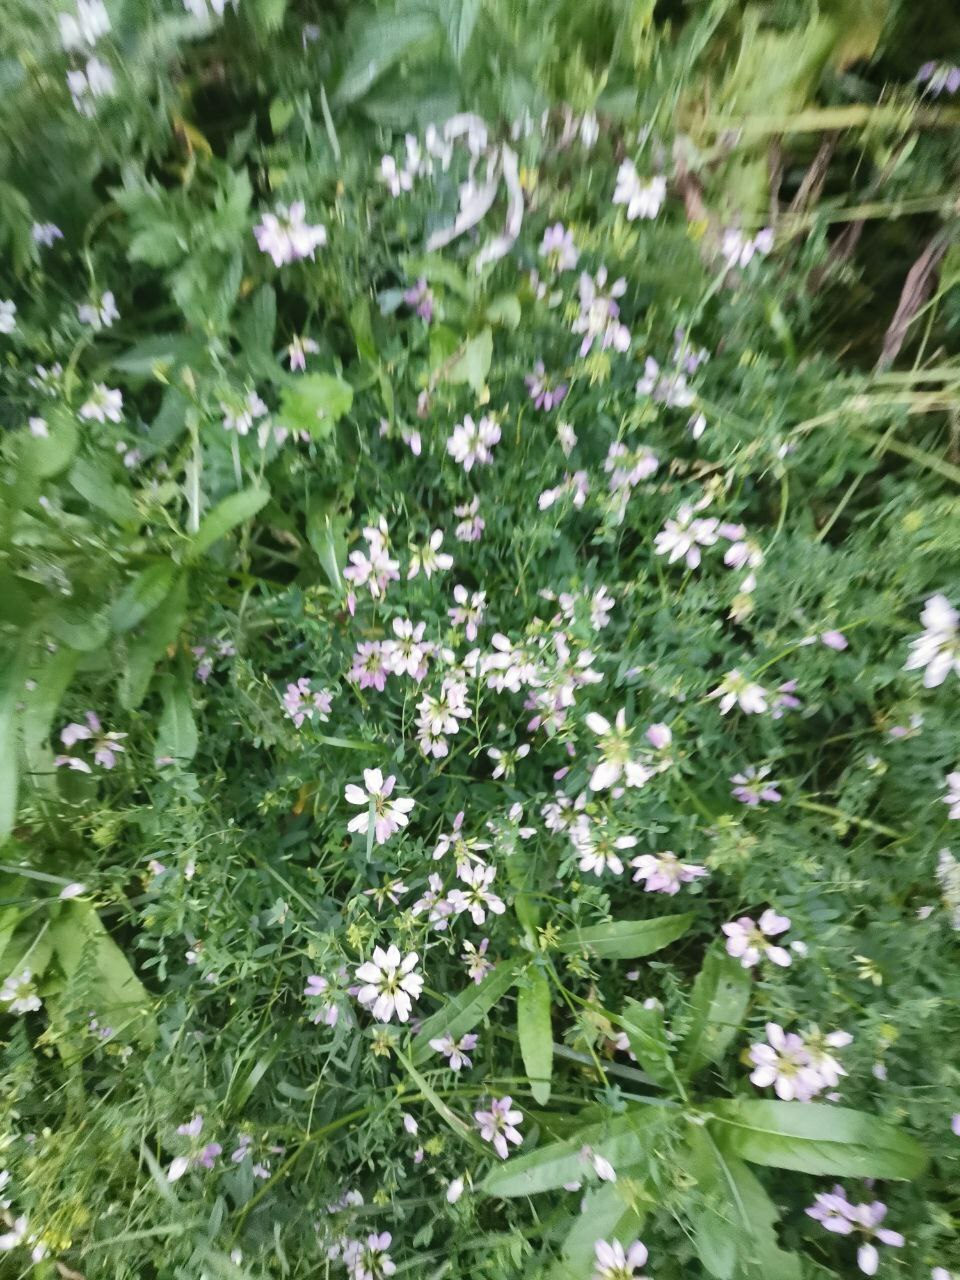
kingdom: Plantae
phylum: Tracheophyta
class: Magnoliopsida
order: Fabales
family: Fabaceae
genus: Coronilla
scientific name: Coronilla varia
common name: Crownvetch
